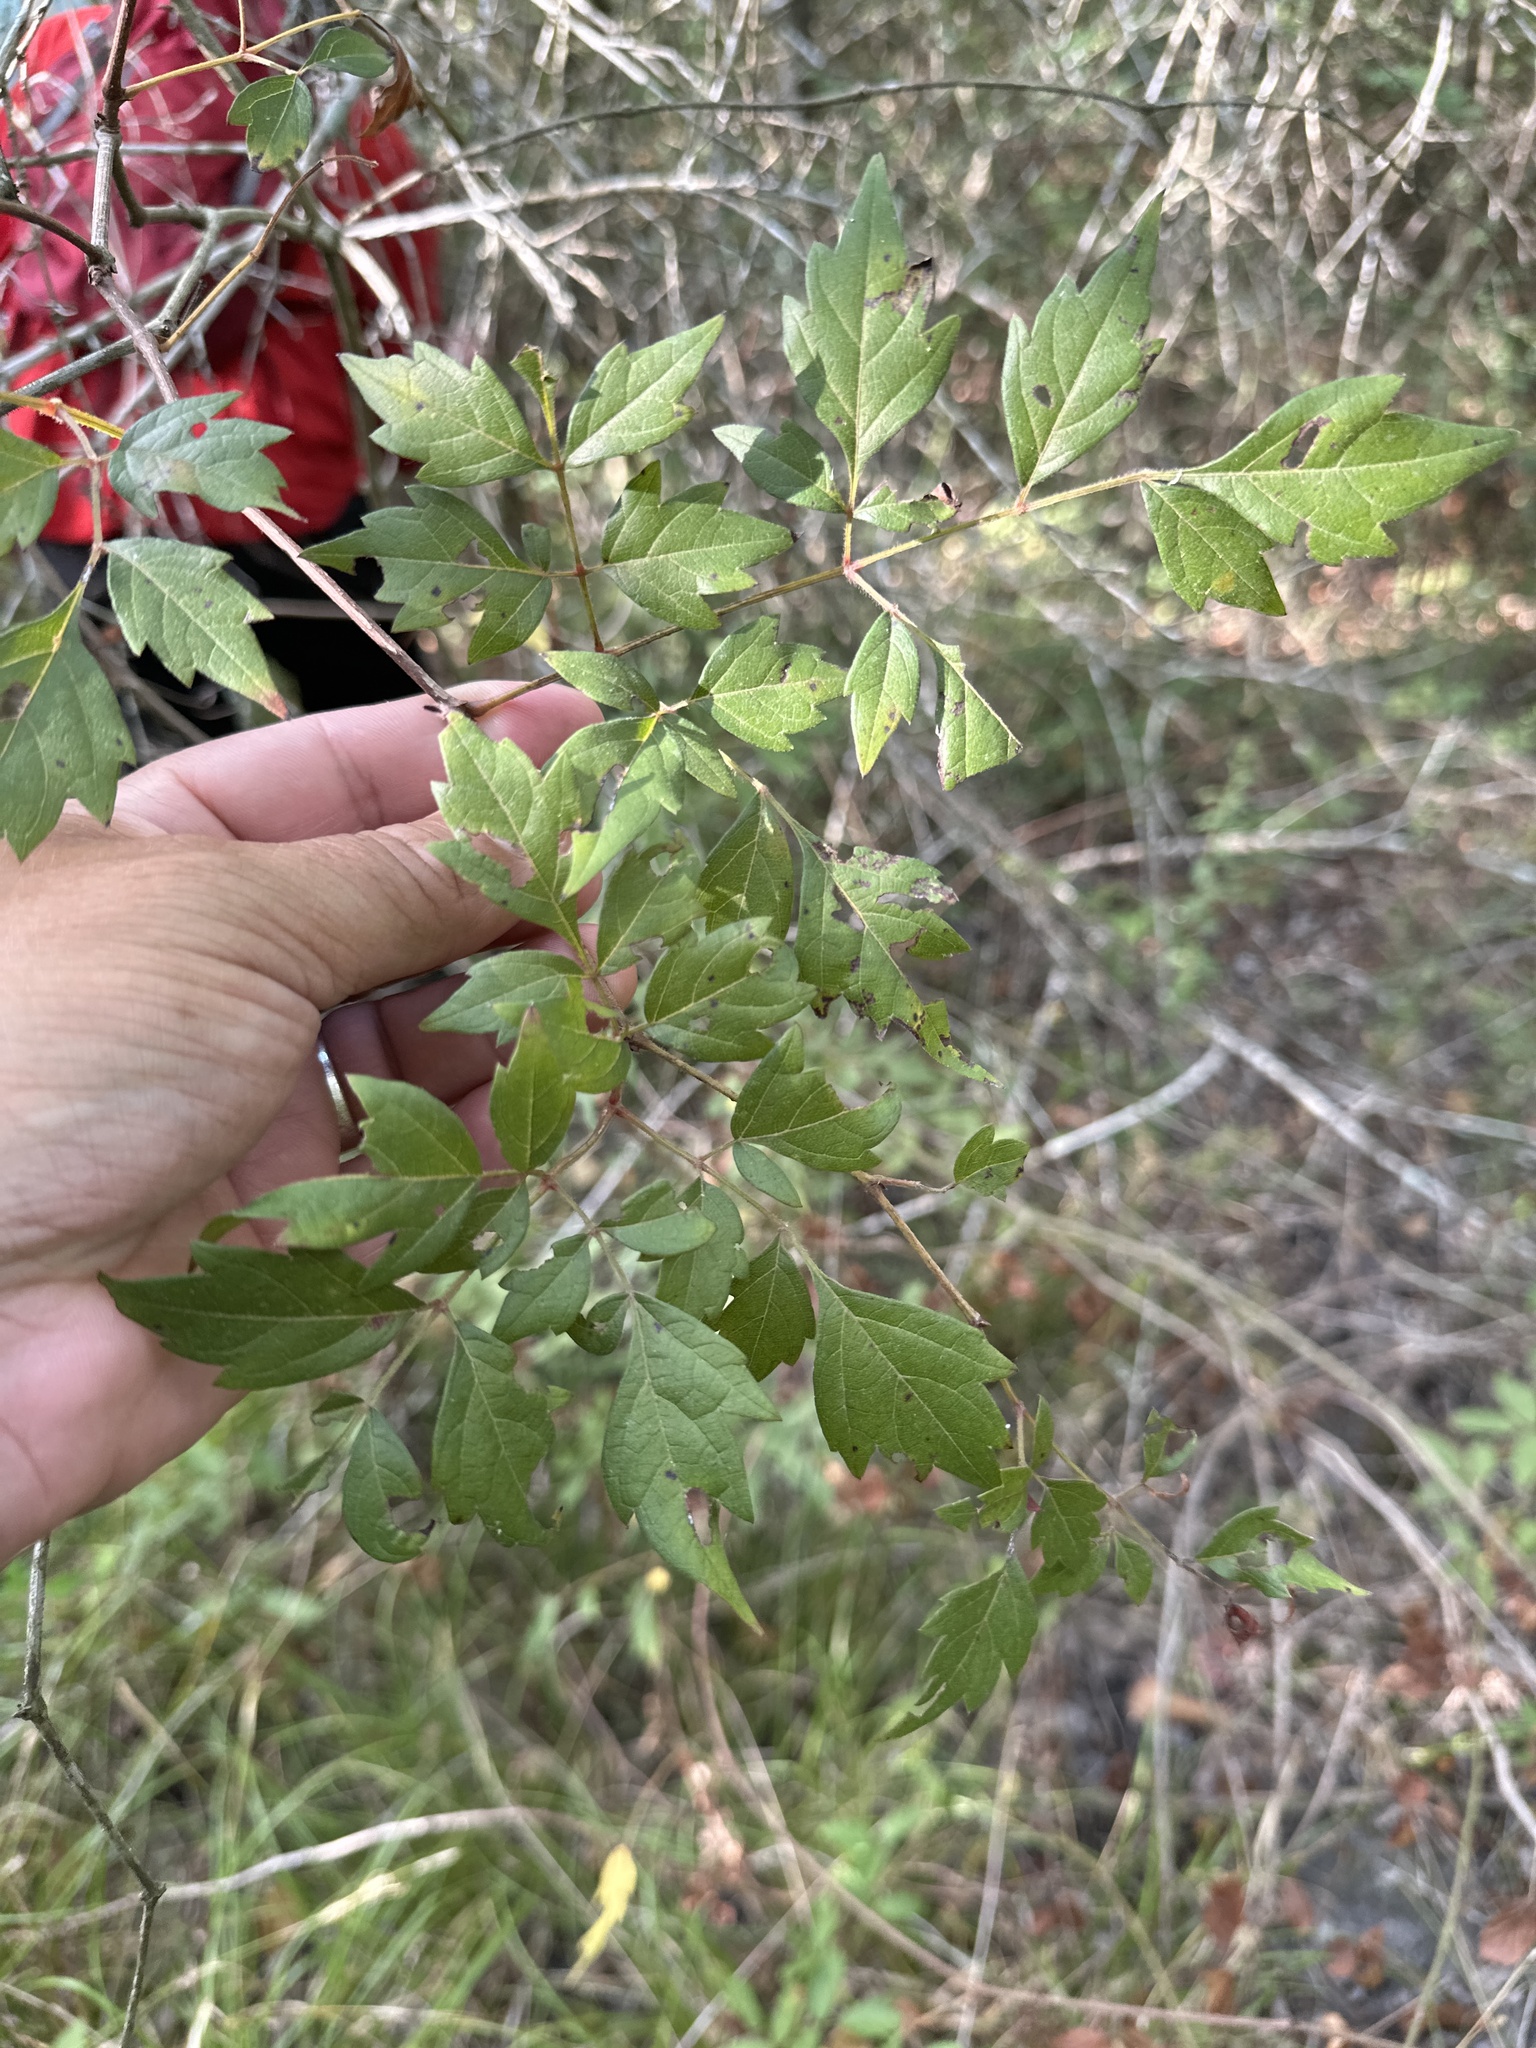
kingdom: Plantae
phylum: Tracheophyta
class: Magnoliopsida
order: Vitales
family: Vitaceae
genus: Nekemias
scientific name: Nekemias arborea
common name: Peppervine
